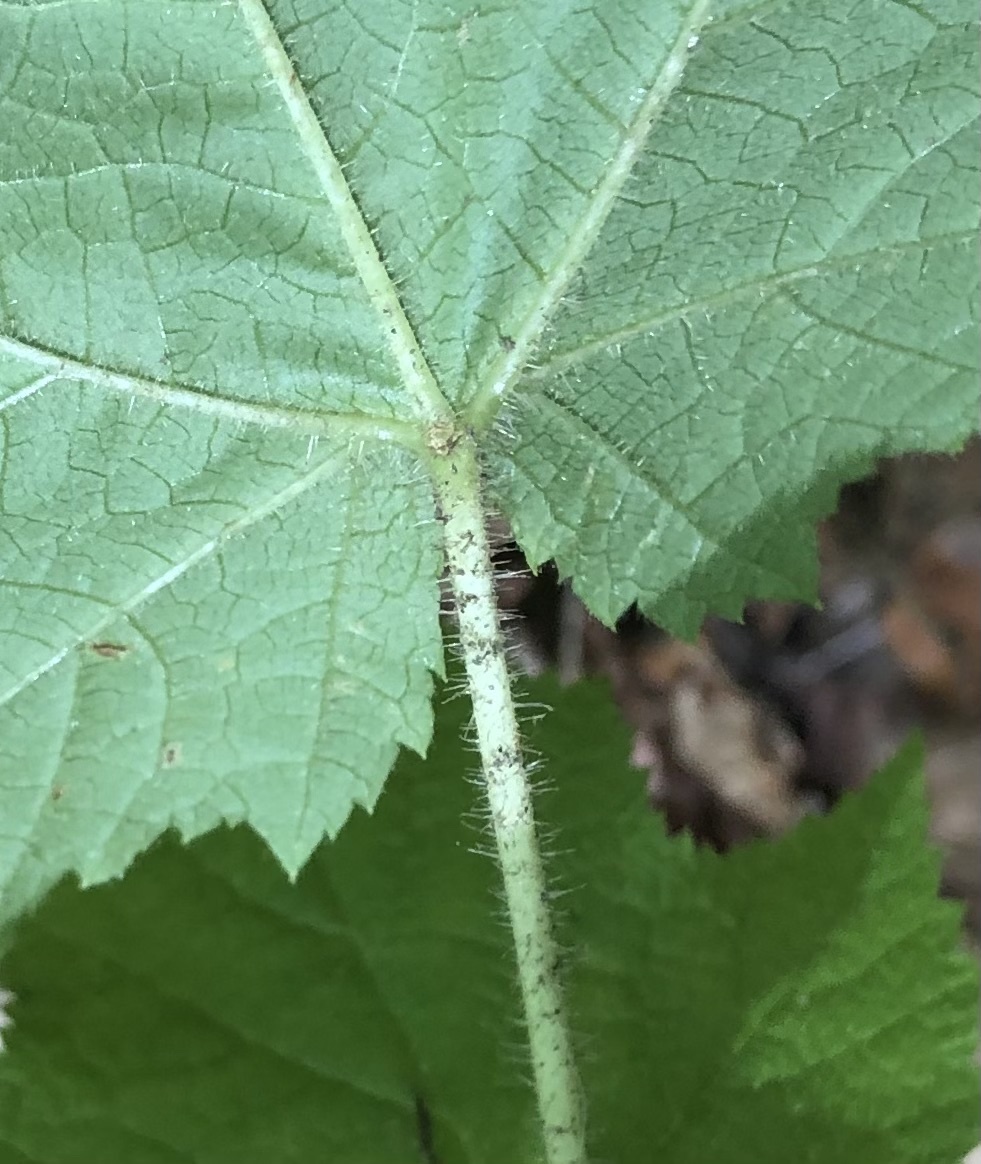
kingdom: Plantae
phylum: Tracheophyta
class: Magnoliopsida
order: Rosales
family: Rosaceae
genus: Rubus
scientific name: Rubus odoratus
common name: Purple-flowered raspberry
